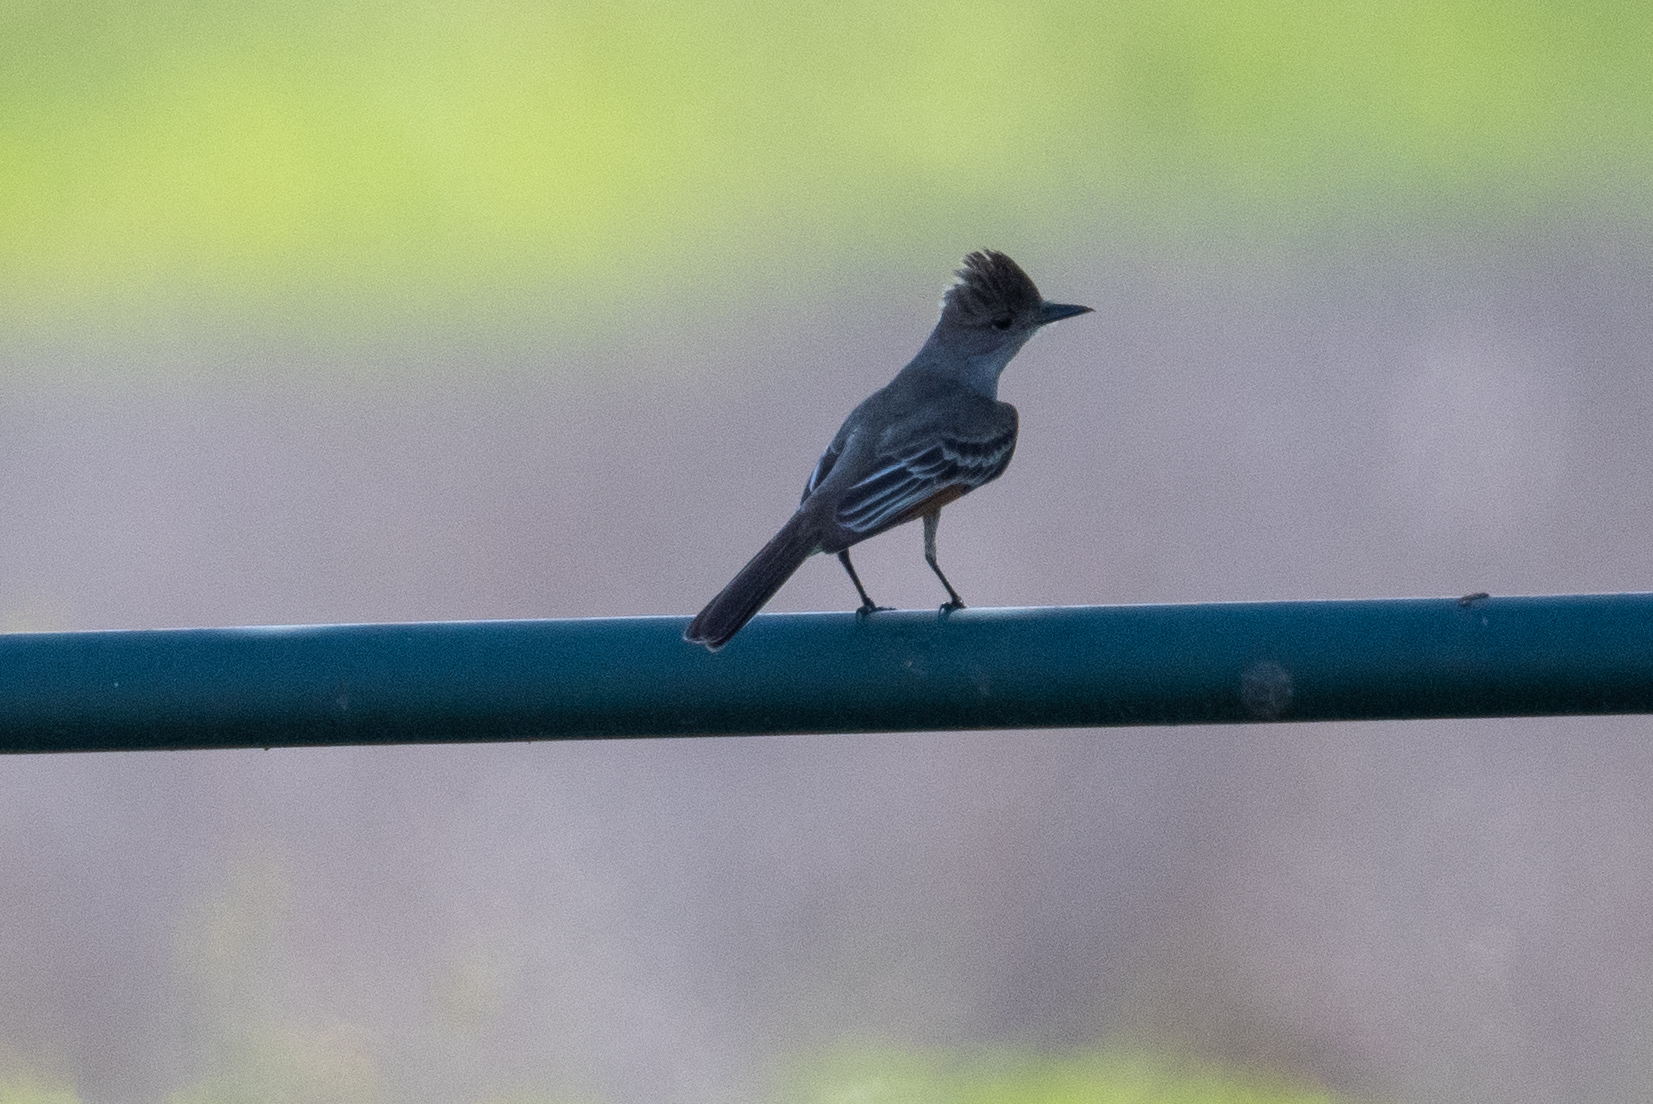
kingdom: Animalia
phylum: Chordata
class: Aves
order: Passeriformes
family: Tyrannidae
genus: Myiarchus
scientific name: Myiarchus cinerascens
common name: Ash-throated flycatcher
